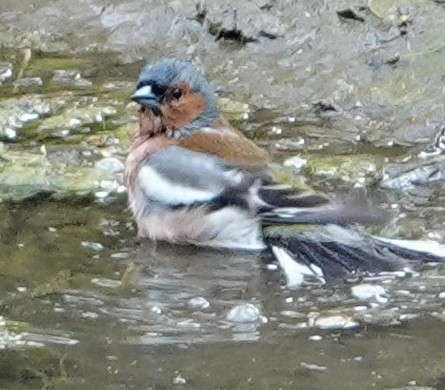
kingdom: Animalia
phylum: Chordata
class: Aves
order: Passeriformes
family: Fringillidae
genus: Fringilla
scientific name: Fringilla coelebs
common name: Common chaffinch
